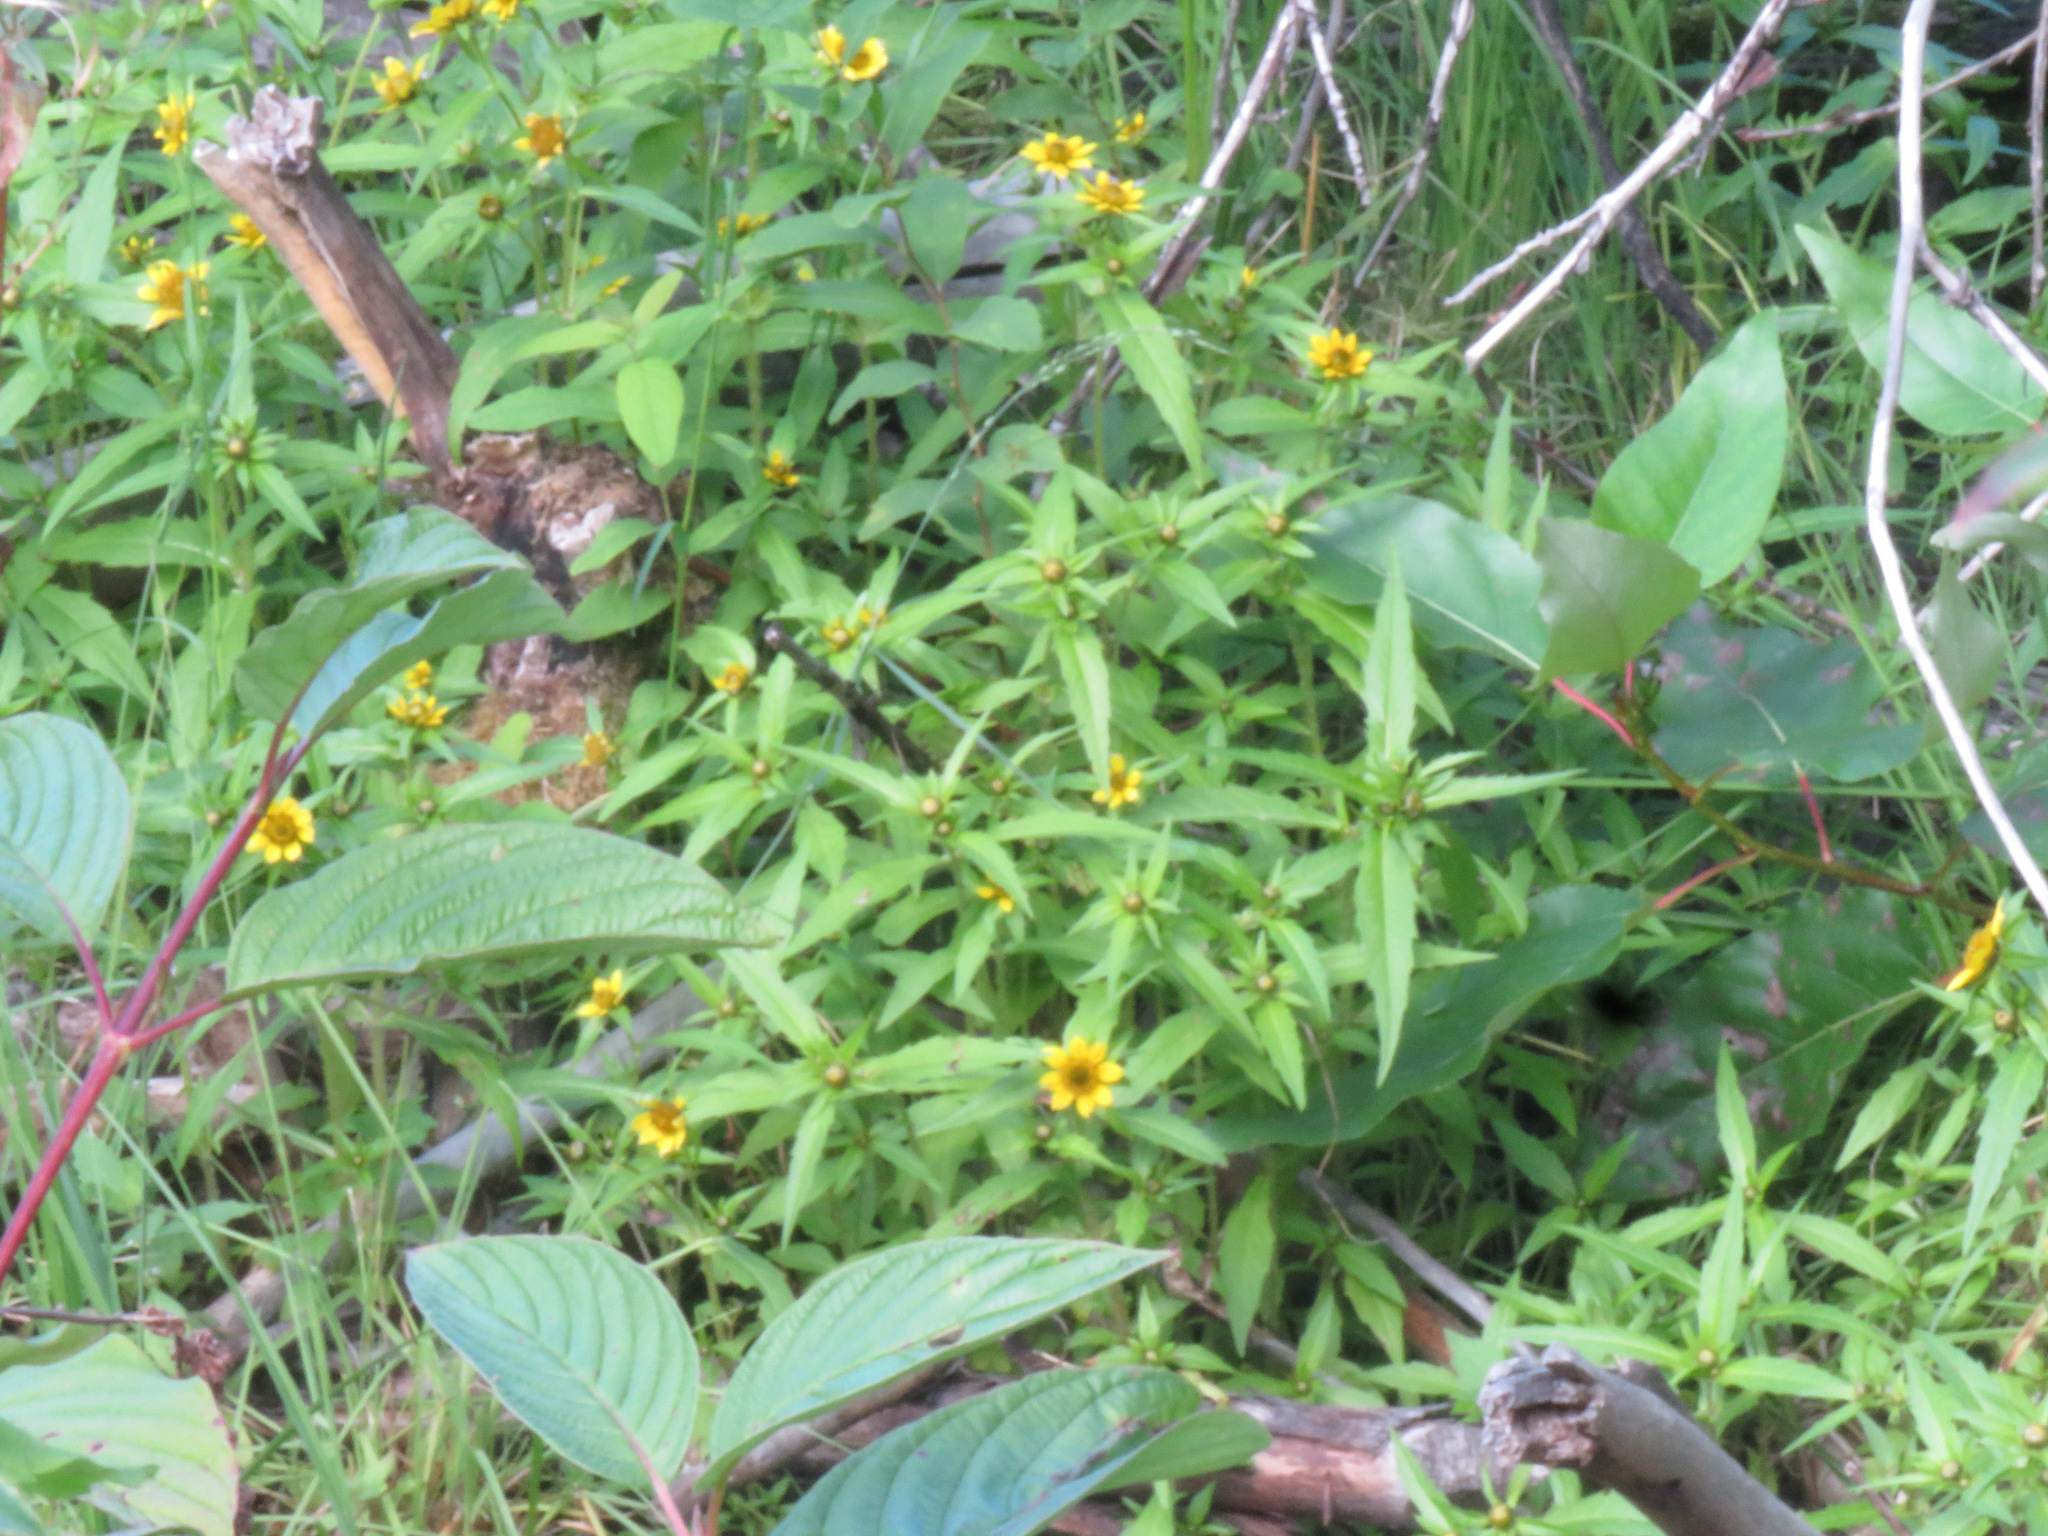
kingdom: Plantae
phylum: Tracheophyta
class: Magnoliopsida
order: Asterales
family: Asteraceae
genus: Bidens
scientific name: Bidens cernua
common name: Nodding bur-marigold
